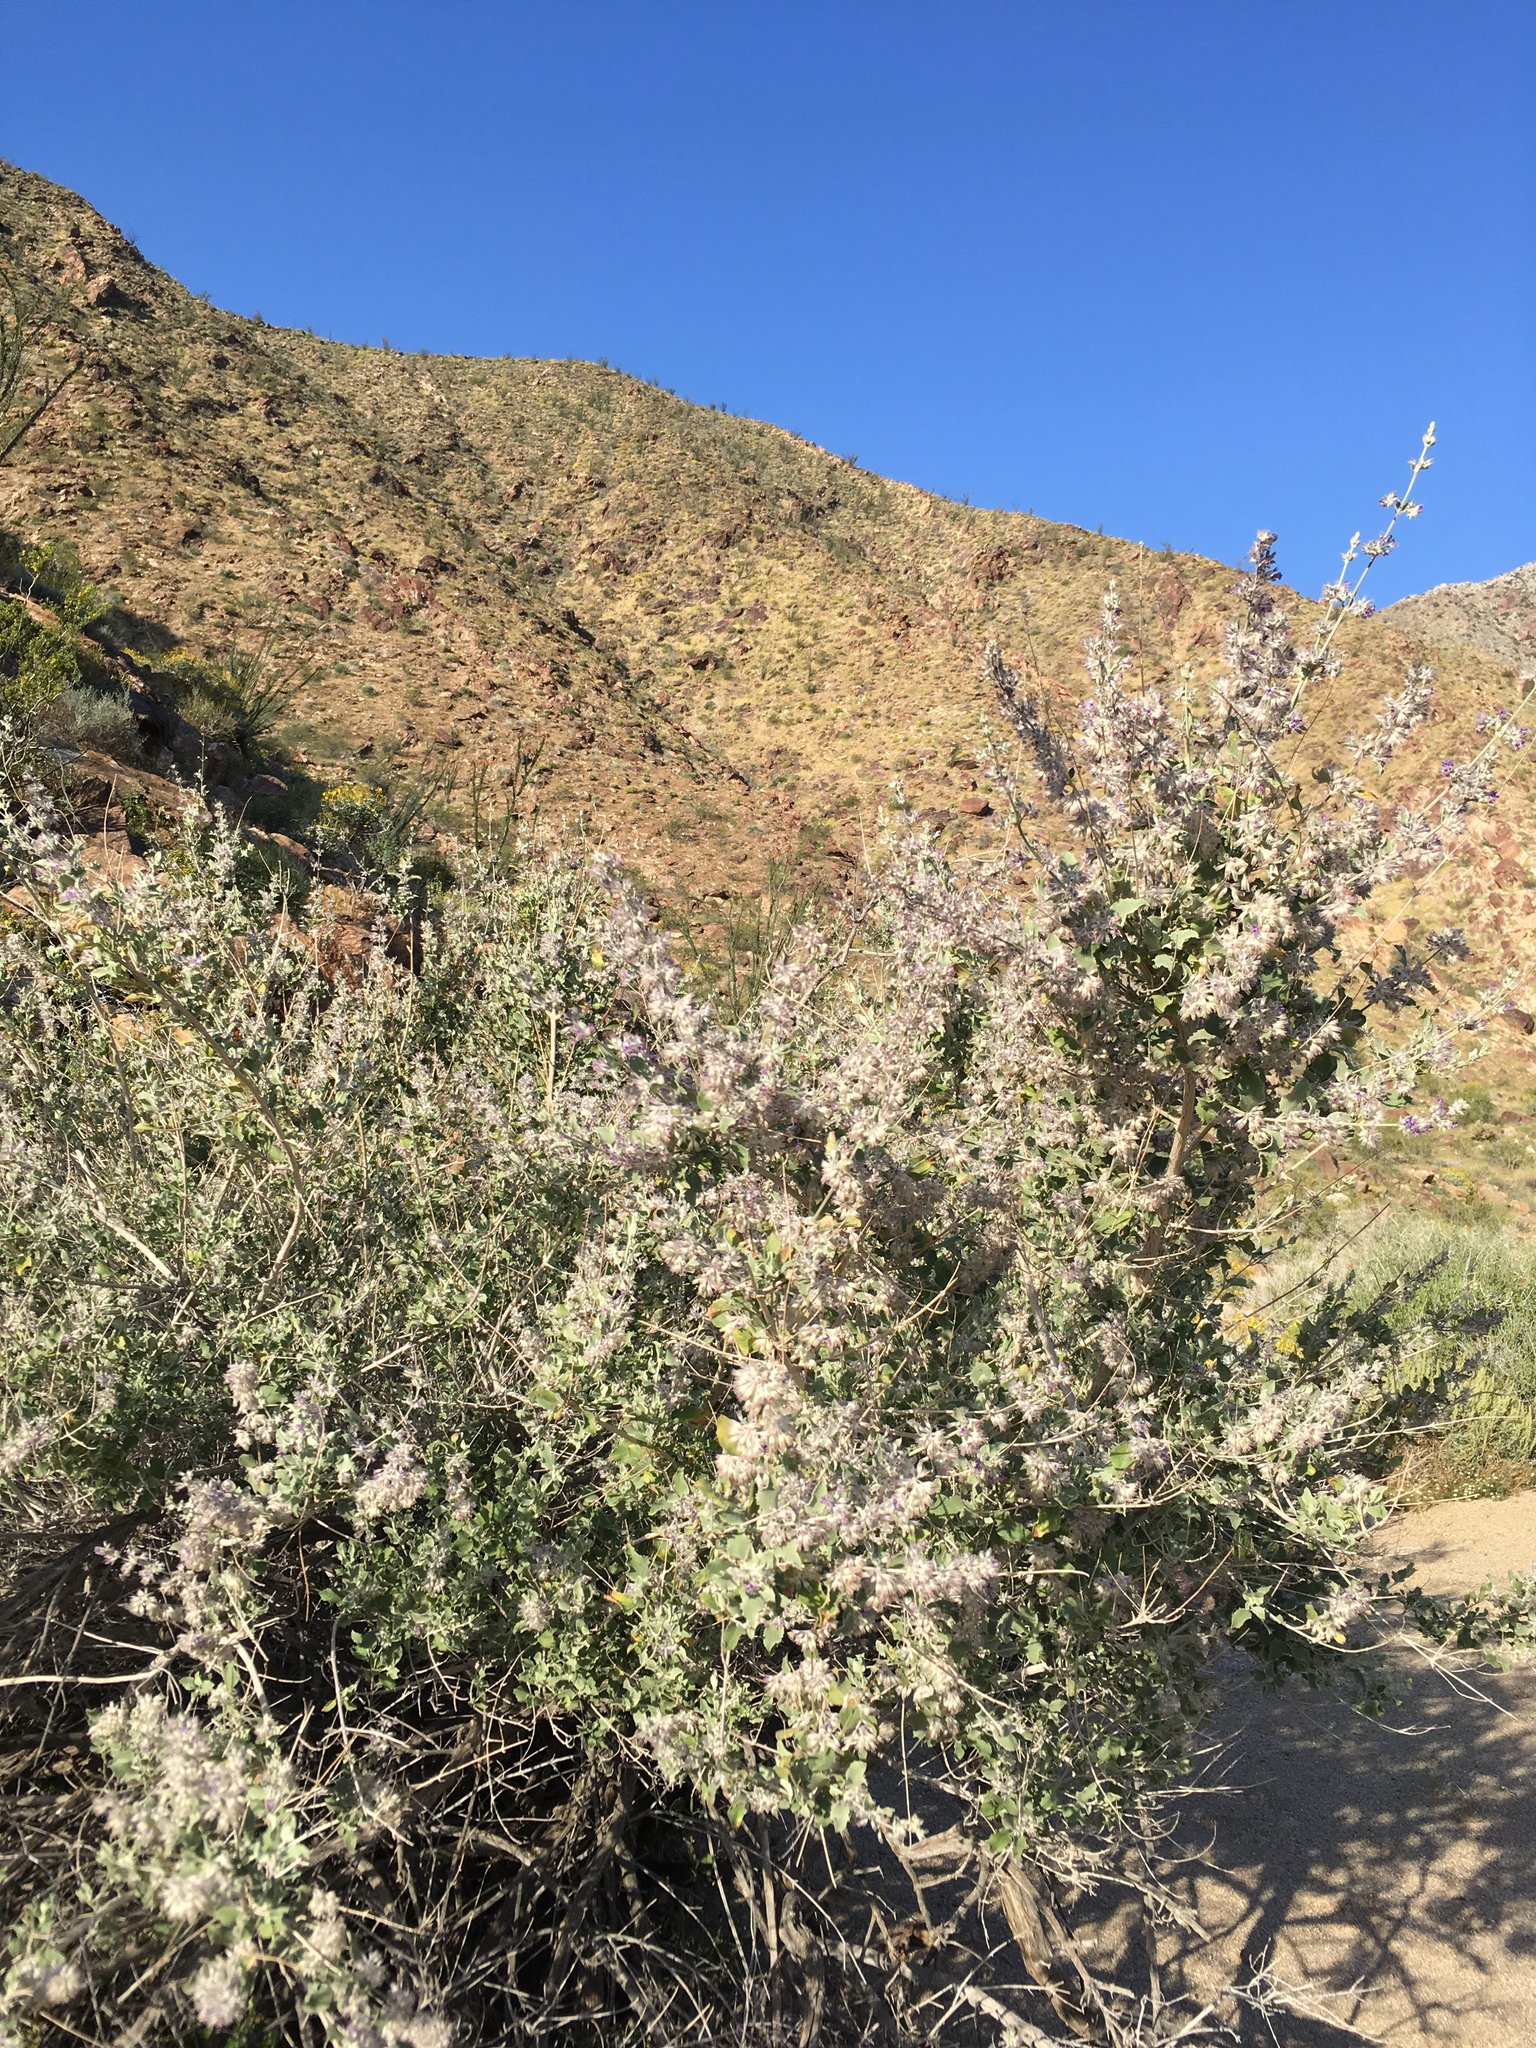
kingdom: Plantae
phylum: Tracheophyta
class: Magnoliopsida
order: Lamiales
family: Lamiaceae
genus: Condea
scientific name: Condea emoryi
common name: Chia
